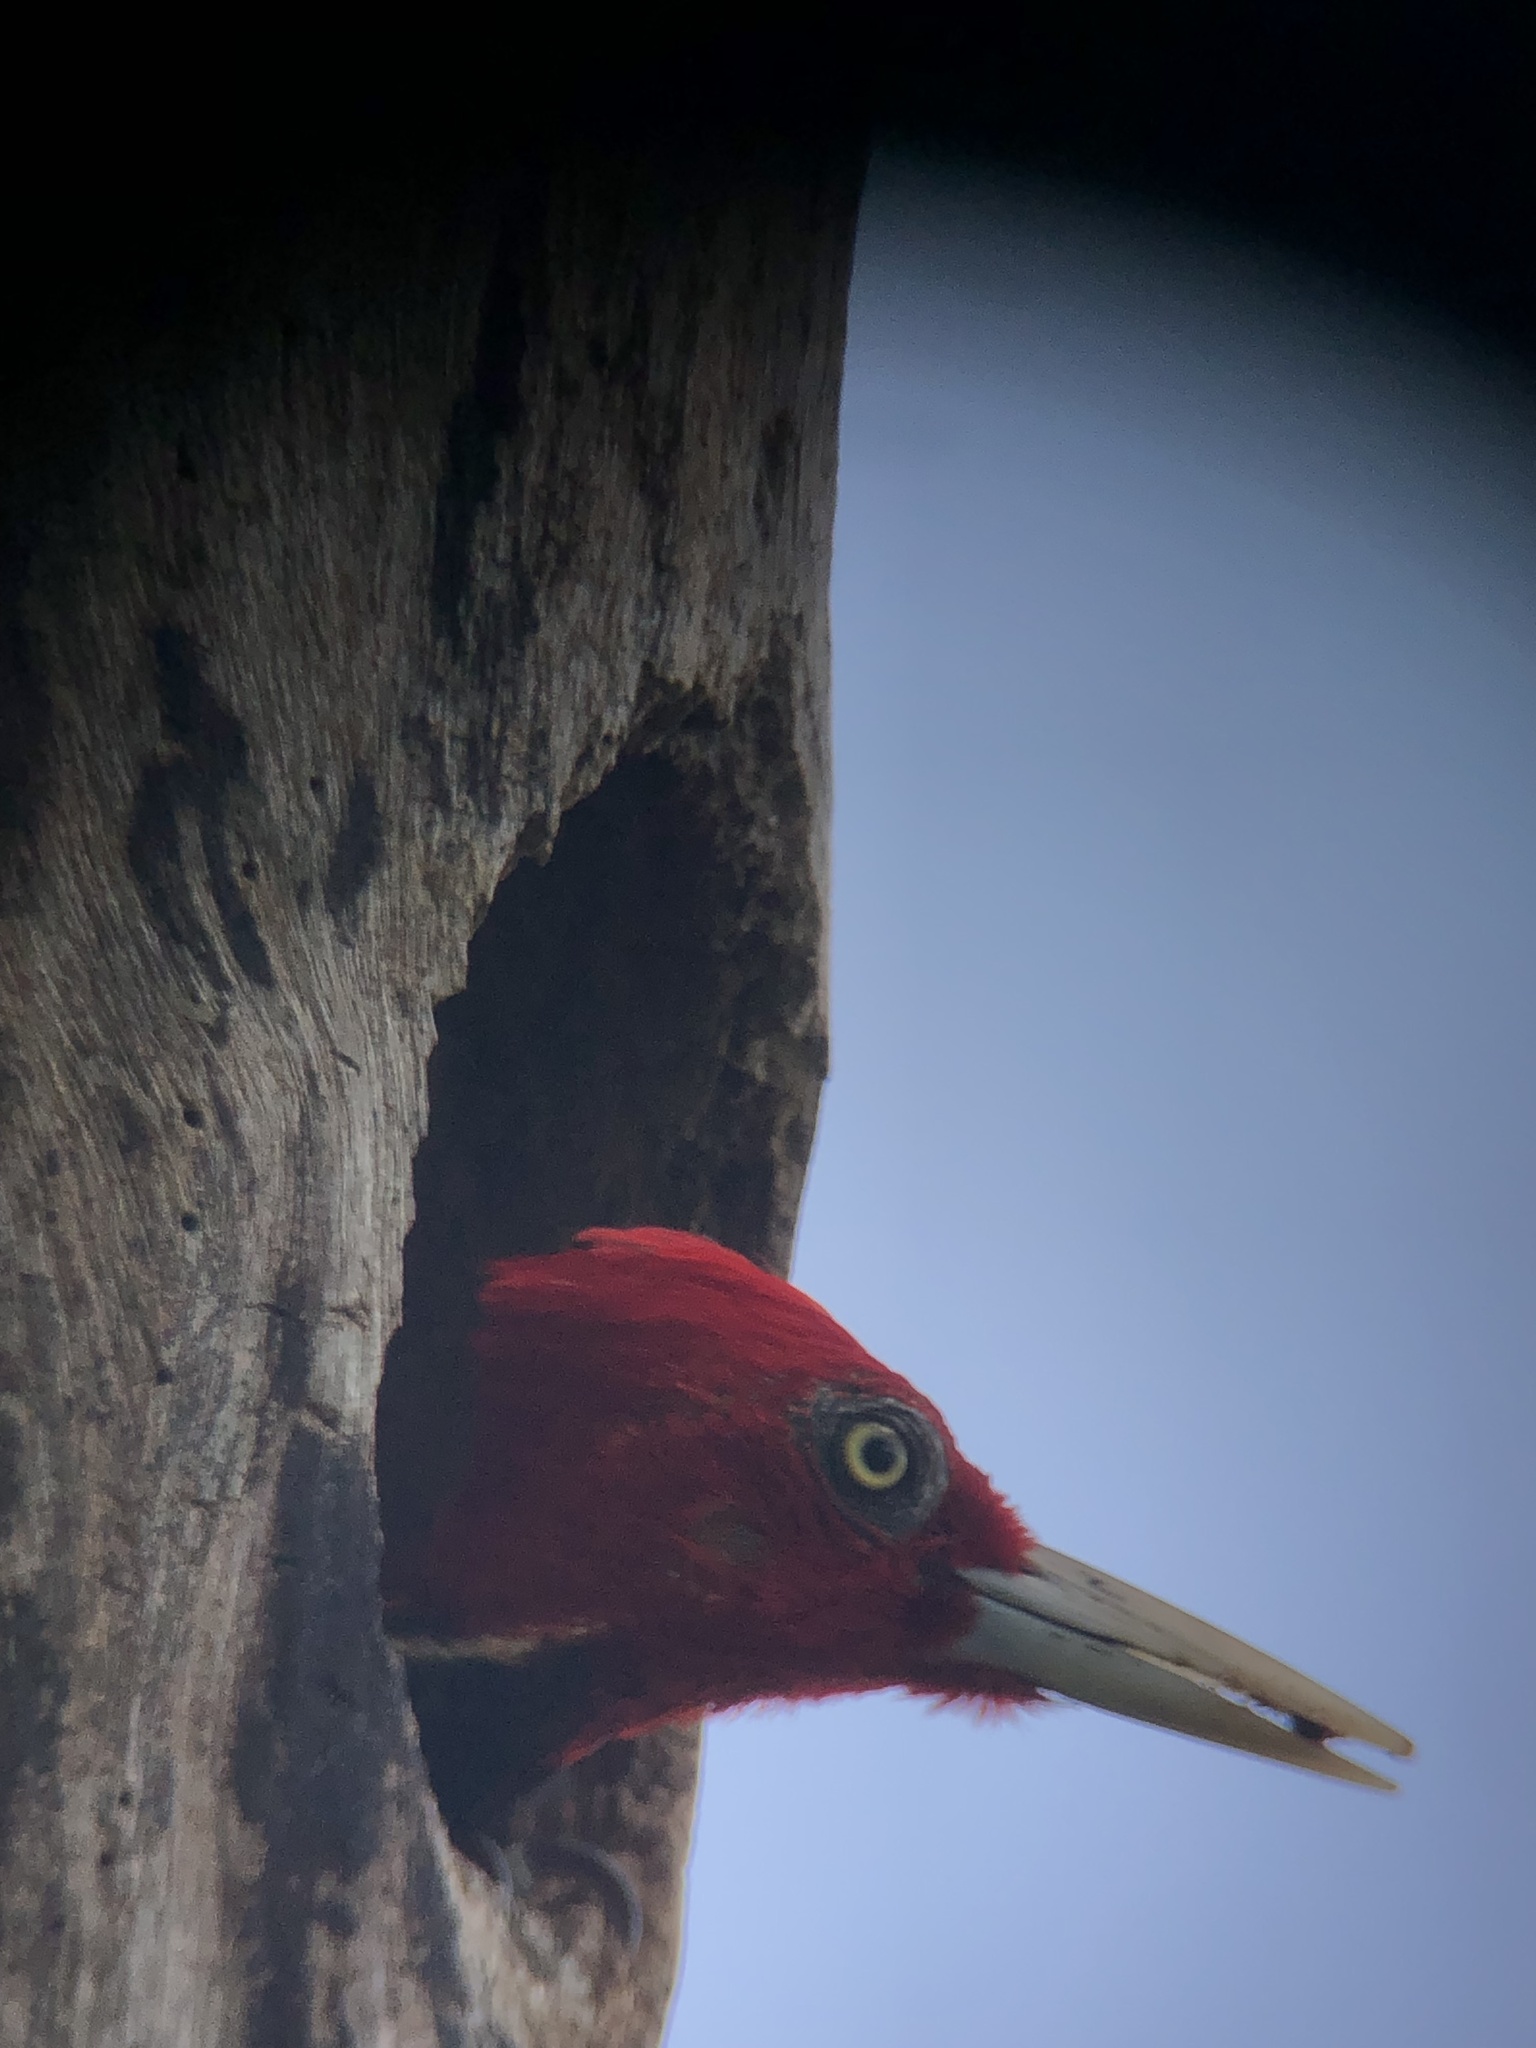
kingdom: Animalia
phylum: Chordata
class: Aves
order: Piciformes
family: Picidae
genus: Campephilus
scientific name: Campephilus guatemalensis
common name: Pale-billed woodpecker
